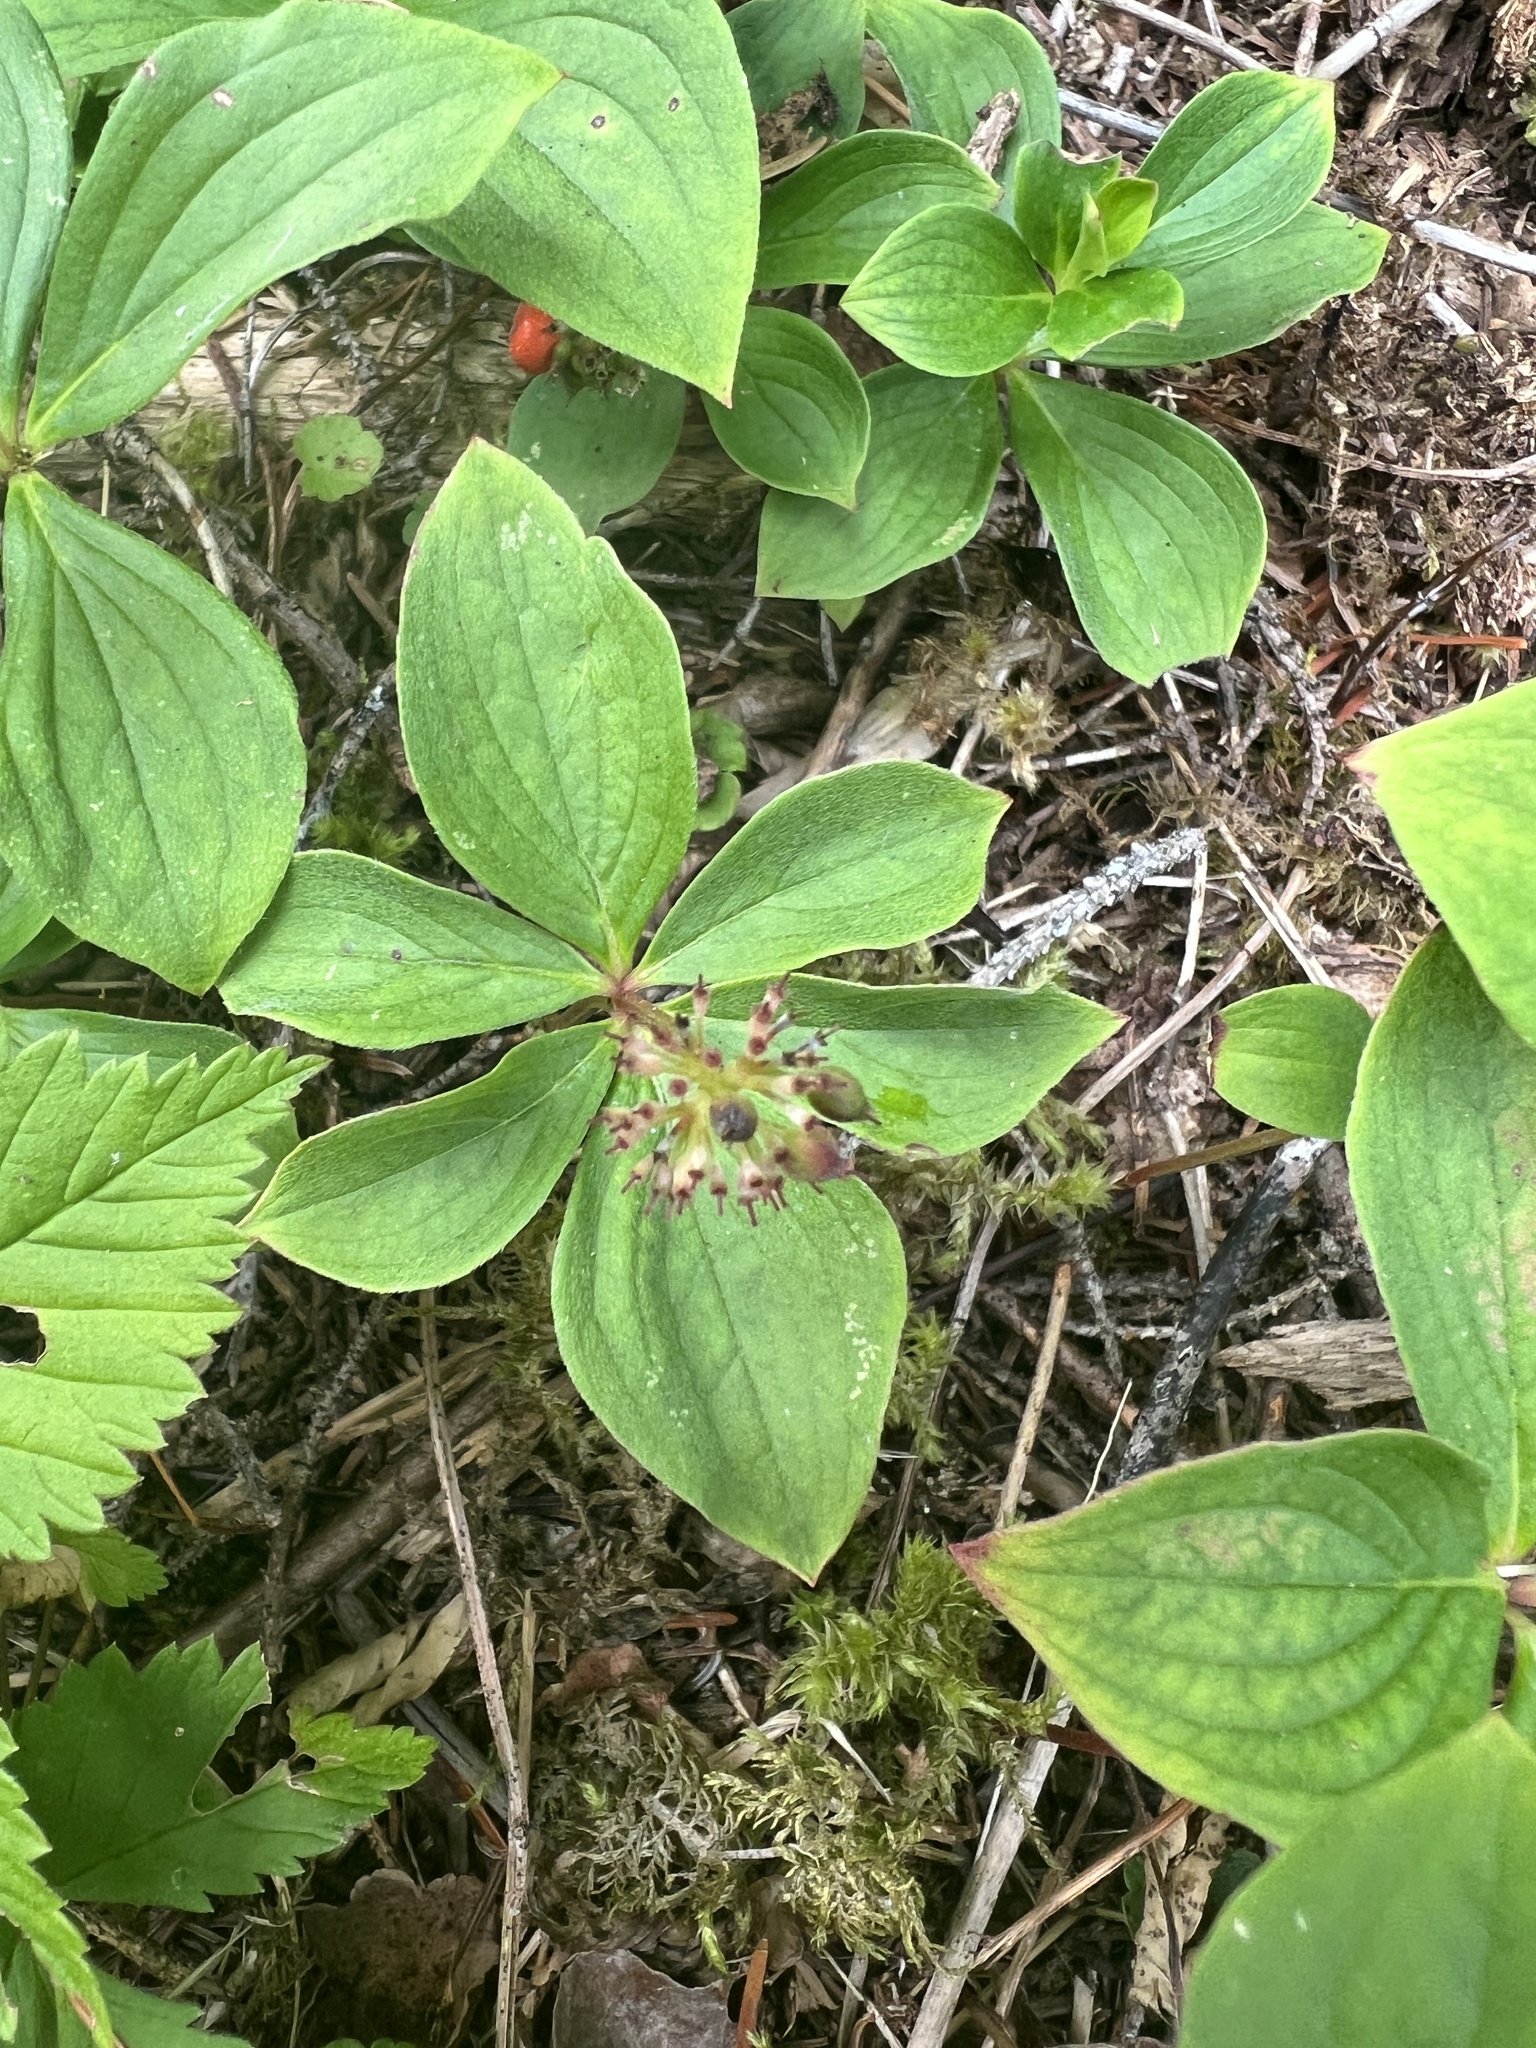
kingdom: Plantae
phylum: Tracheophyta
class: Magnoliopsida
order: Cornales
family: Cornaceae
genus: Cornus
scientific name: Cornus canadensis
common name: Creeping dogwood
